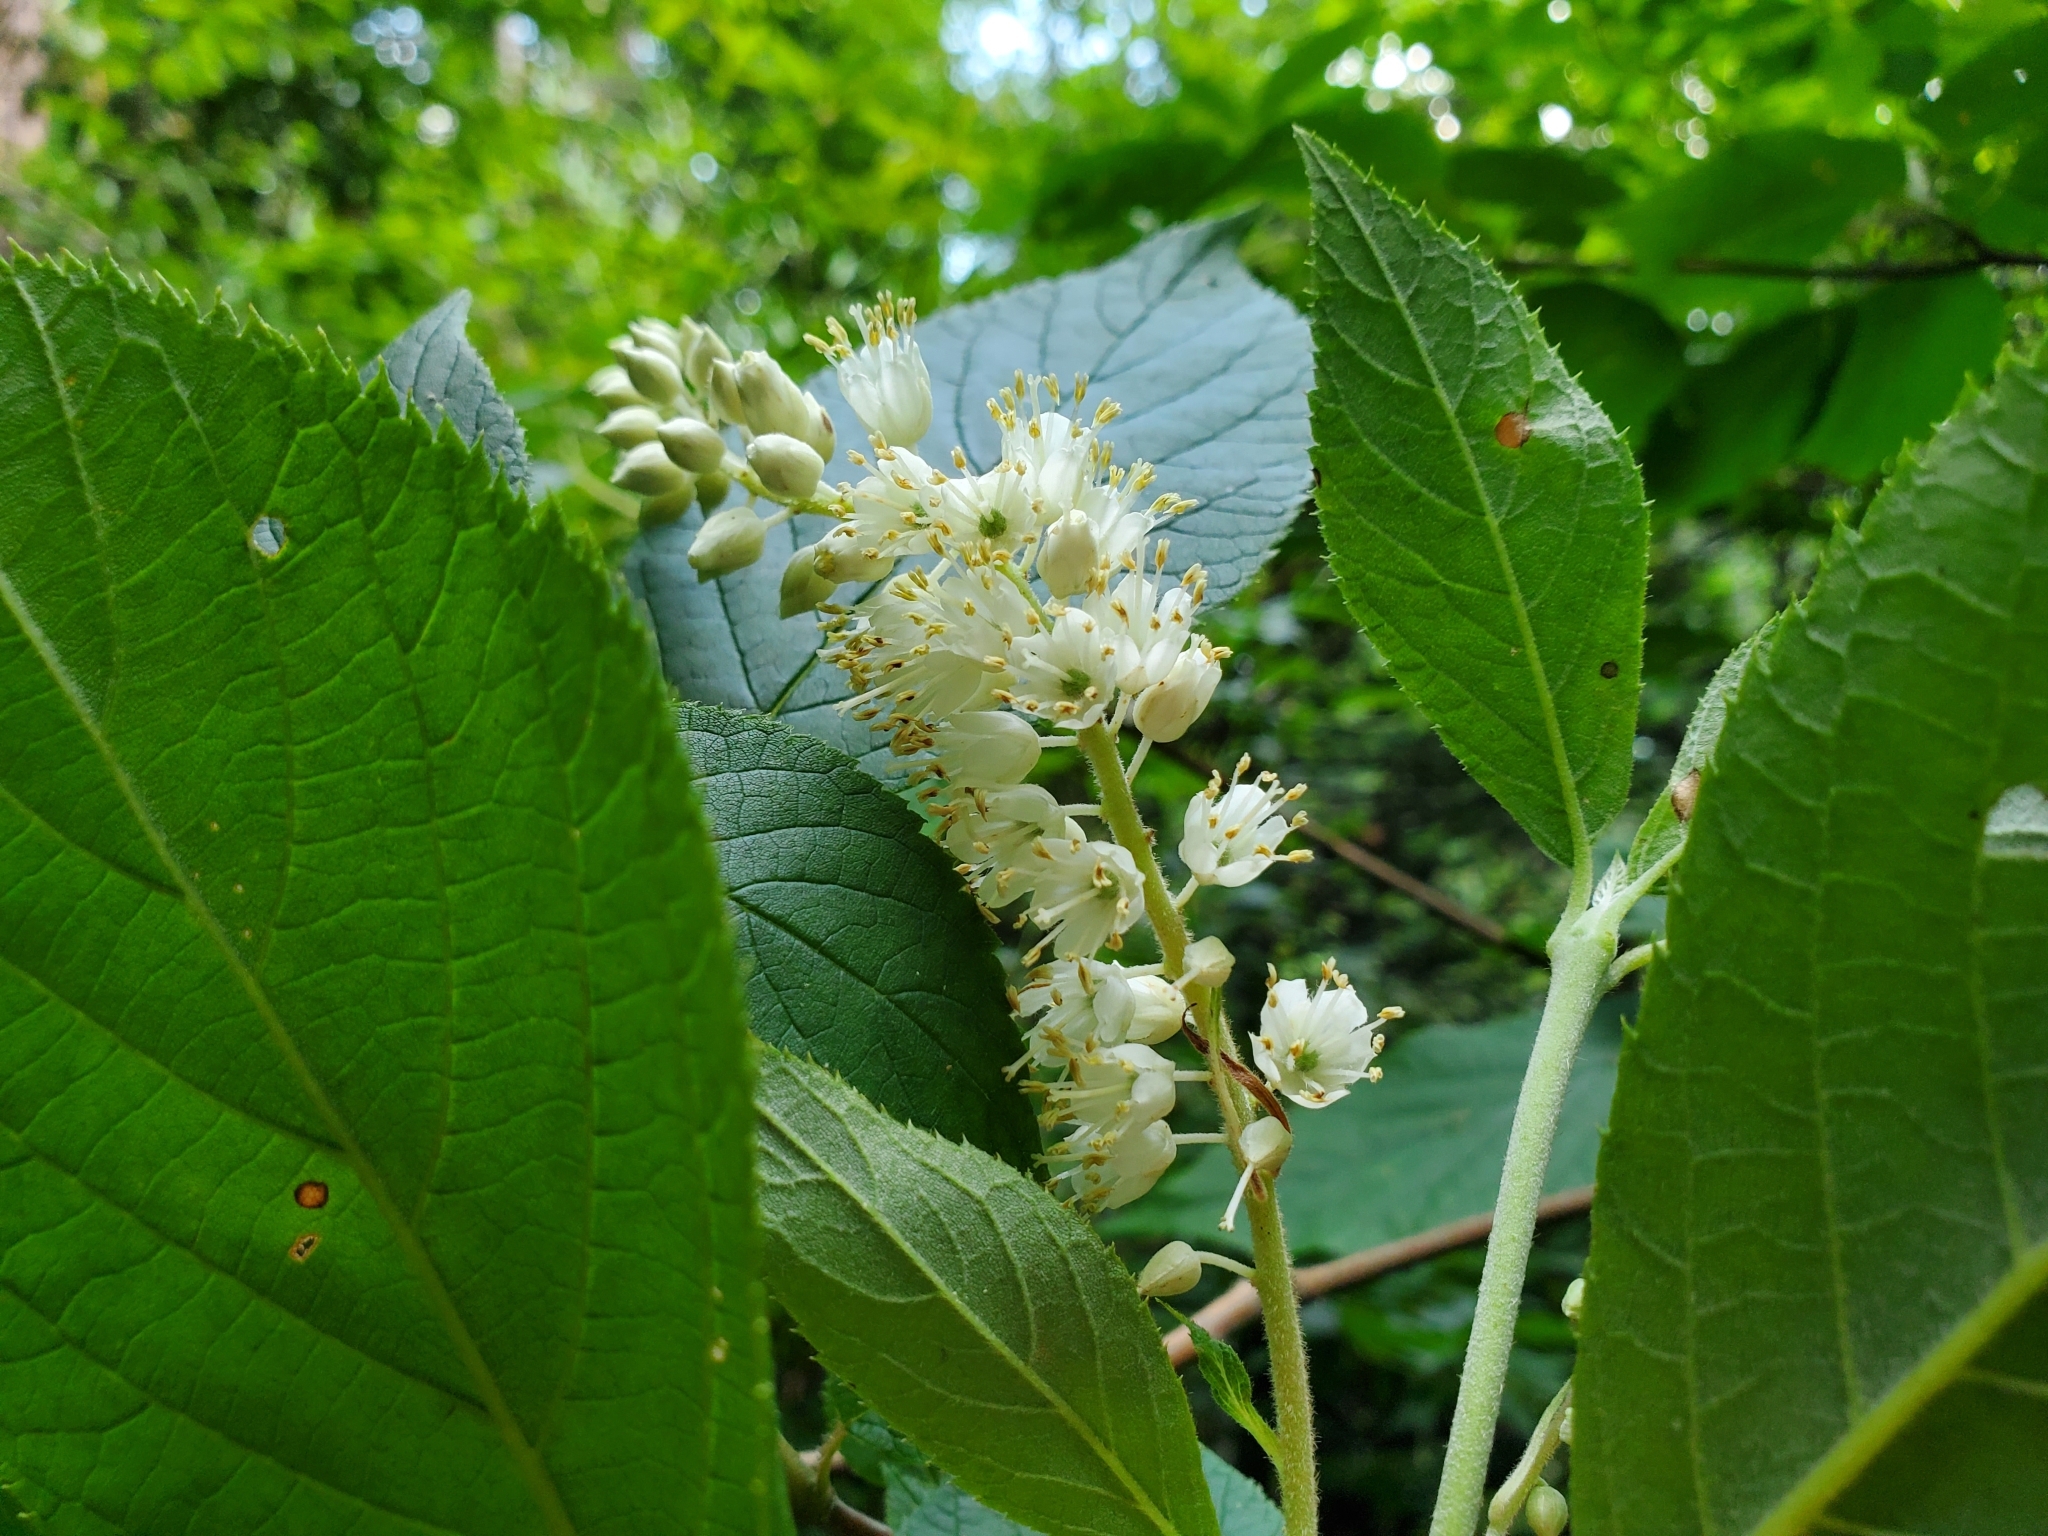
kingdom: Plantae
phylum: Tracheophyta
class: Magnoliopsida
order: Ericales
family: Clethraceae
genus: Clethra
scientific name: Clethra acuminata
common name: Mountain sweet pepperbush
